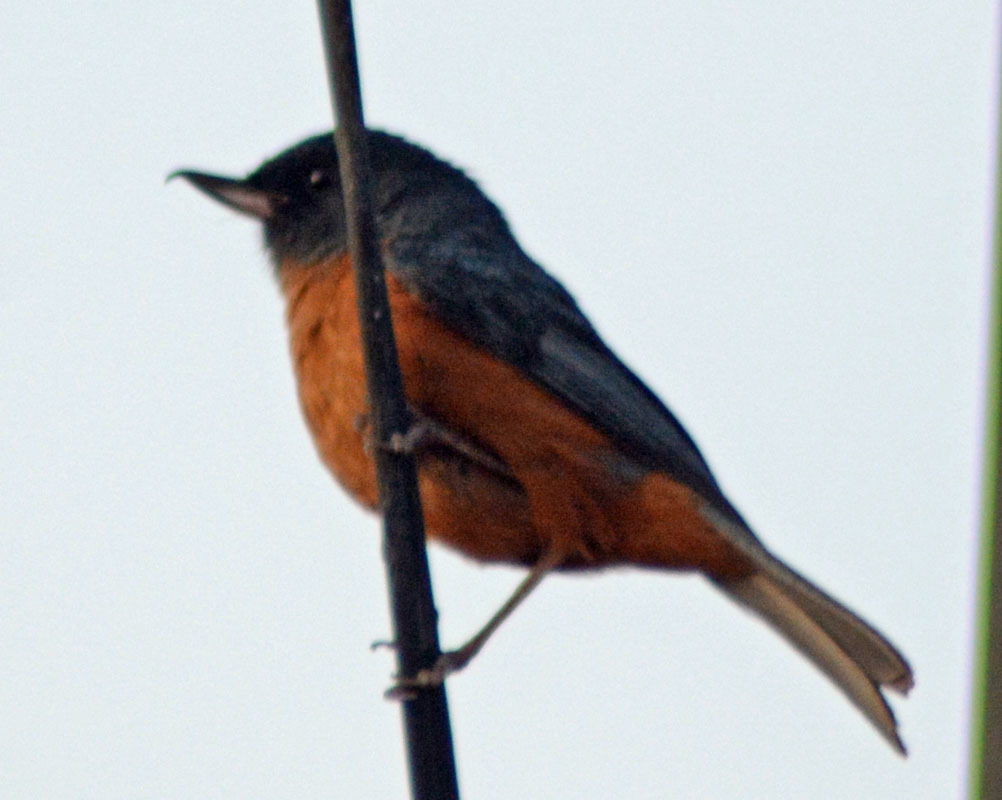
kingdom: Animalia
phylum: Chordata
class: Aves
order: Passeriformes
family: Thraupidae
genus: Diglossa
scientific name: Diglossa baritula
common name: Cinnamon-bellied flowerpiercer
